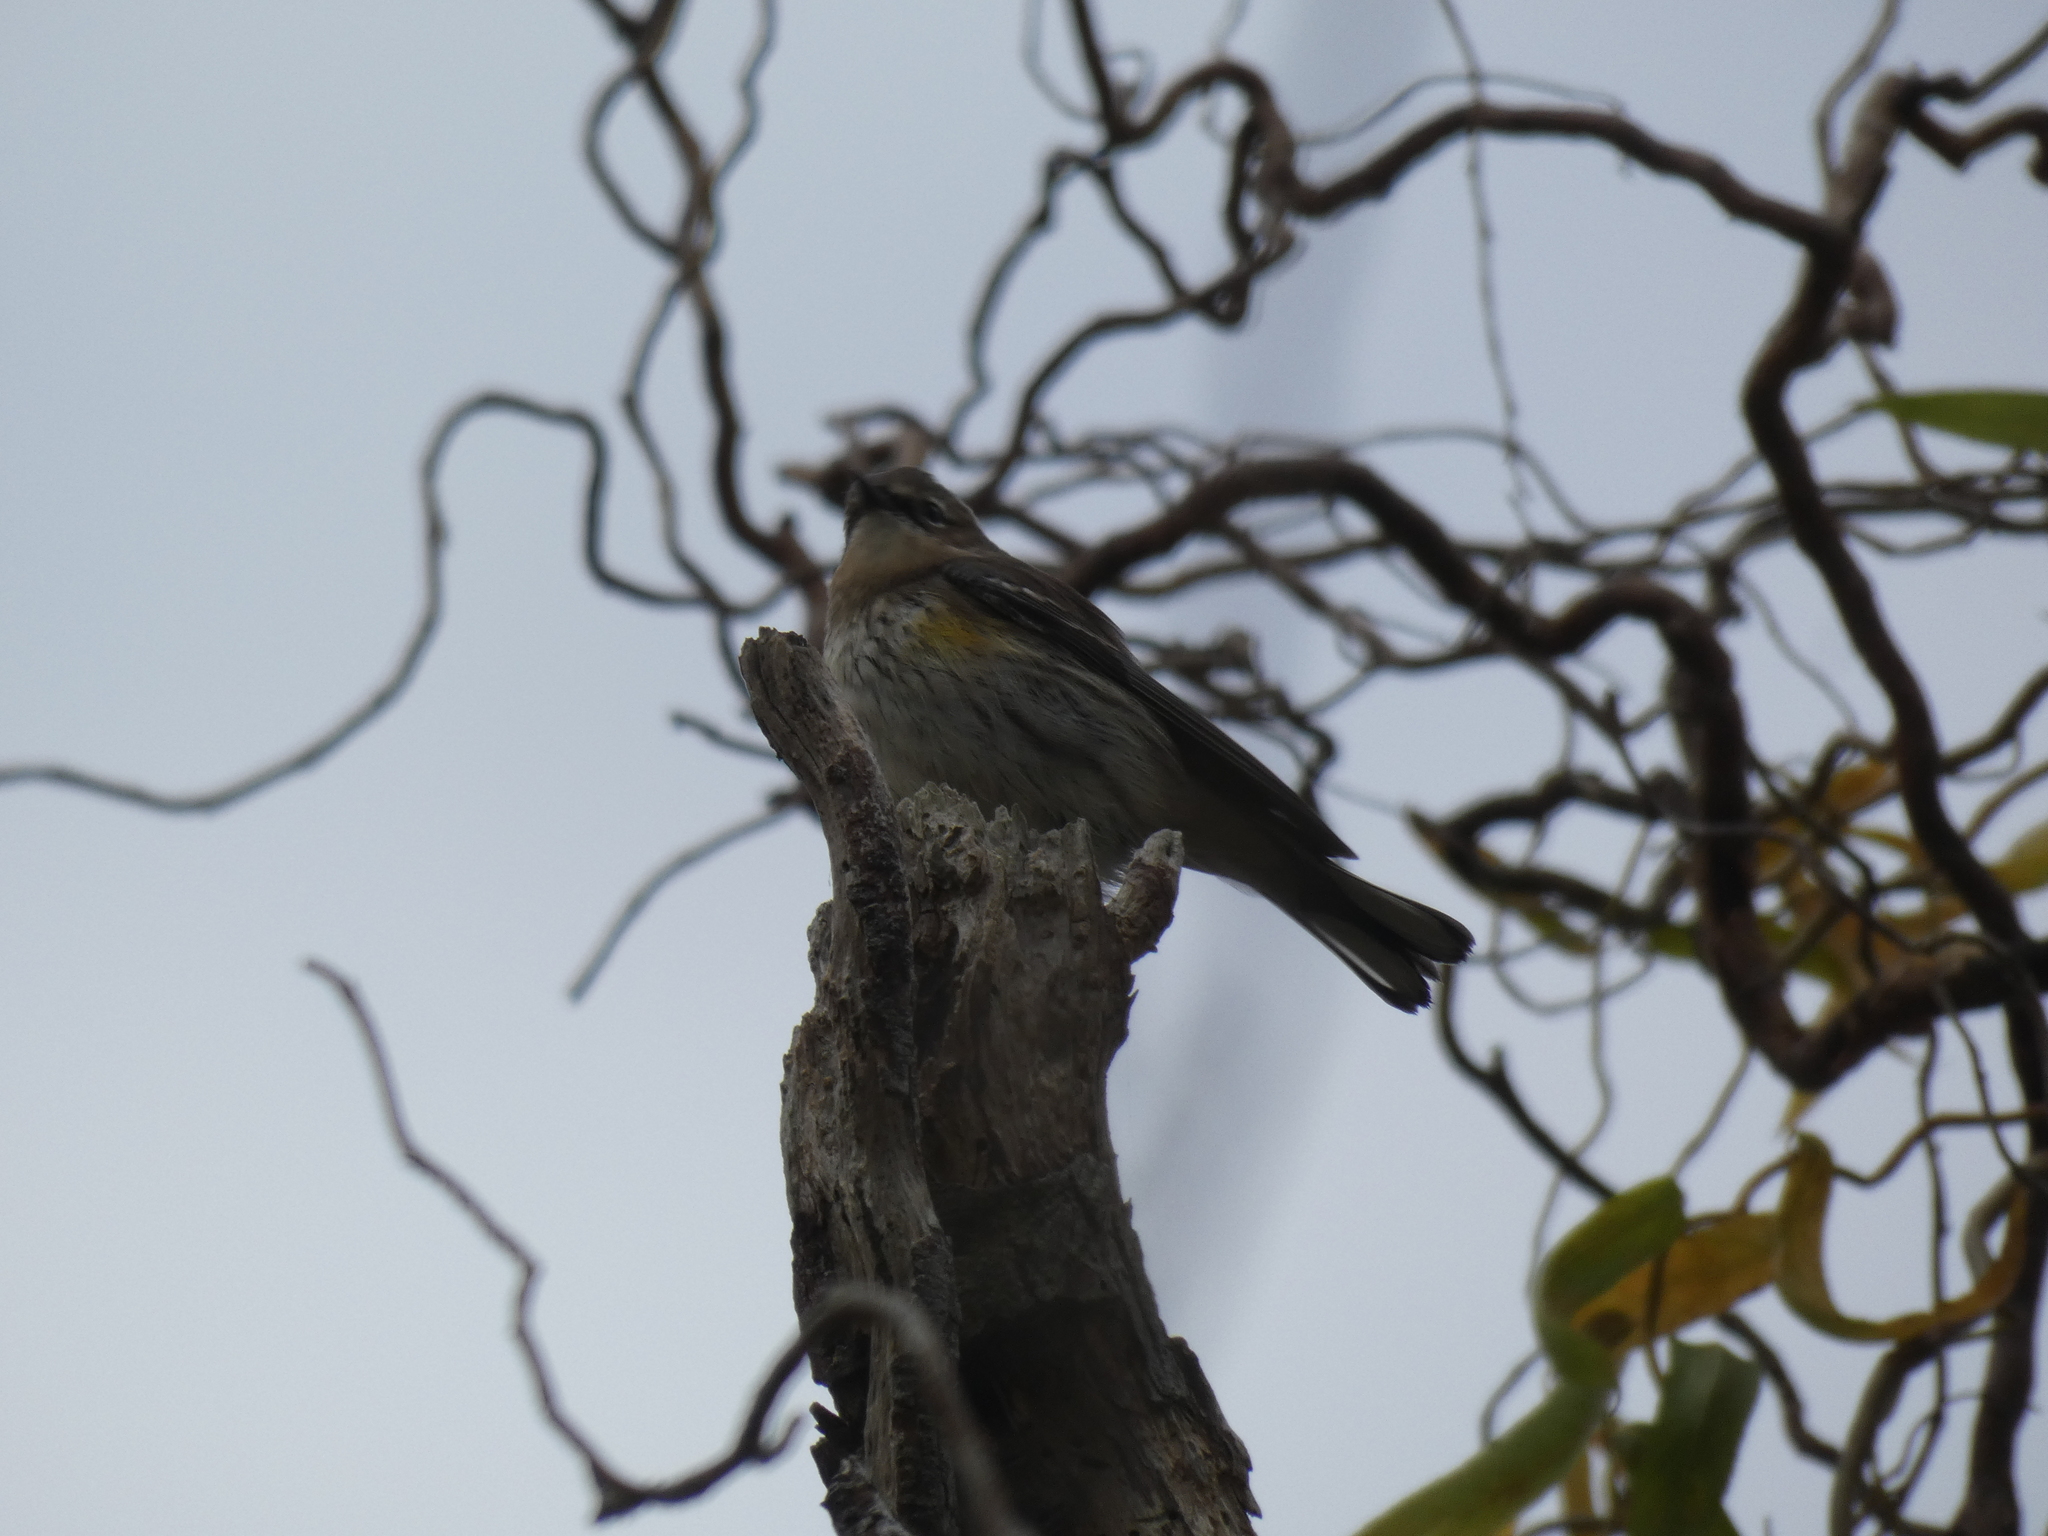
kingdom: Animalia
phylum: Chordata
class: Aves
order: Passeriformes
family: Parulidae
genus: Setophaga
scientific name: Setophaga coronata
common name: Myrtle warbler
